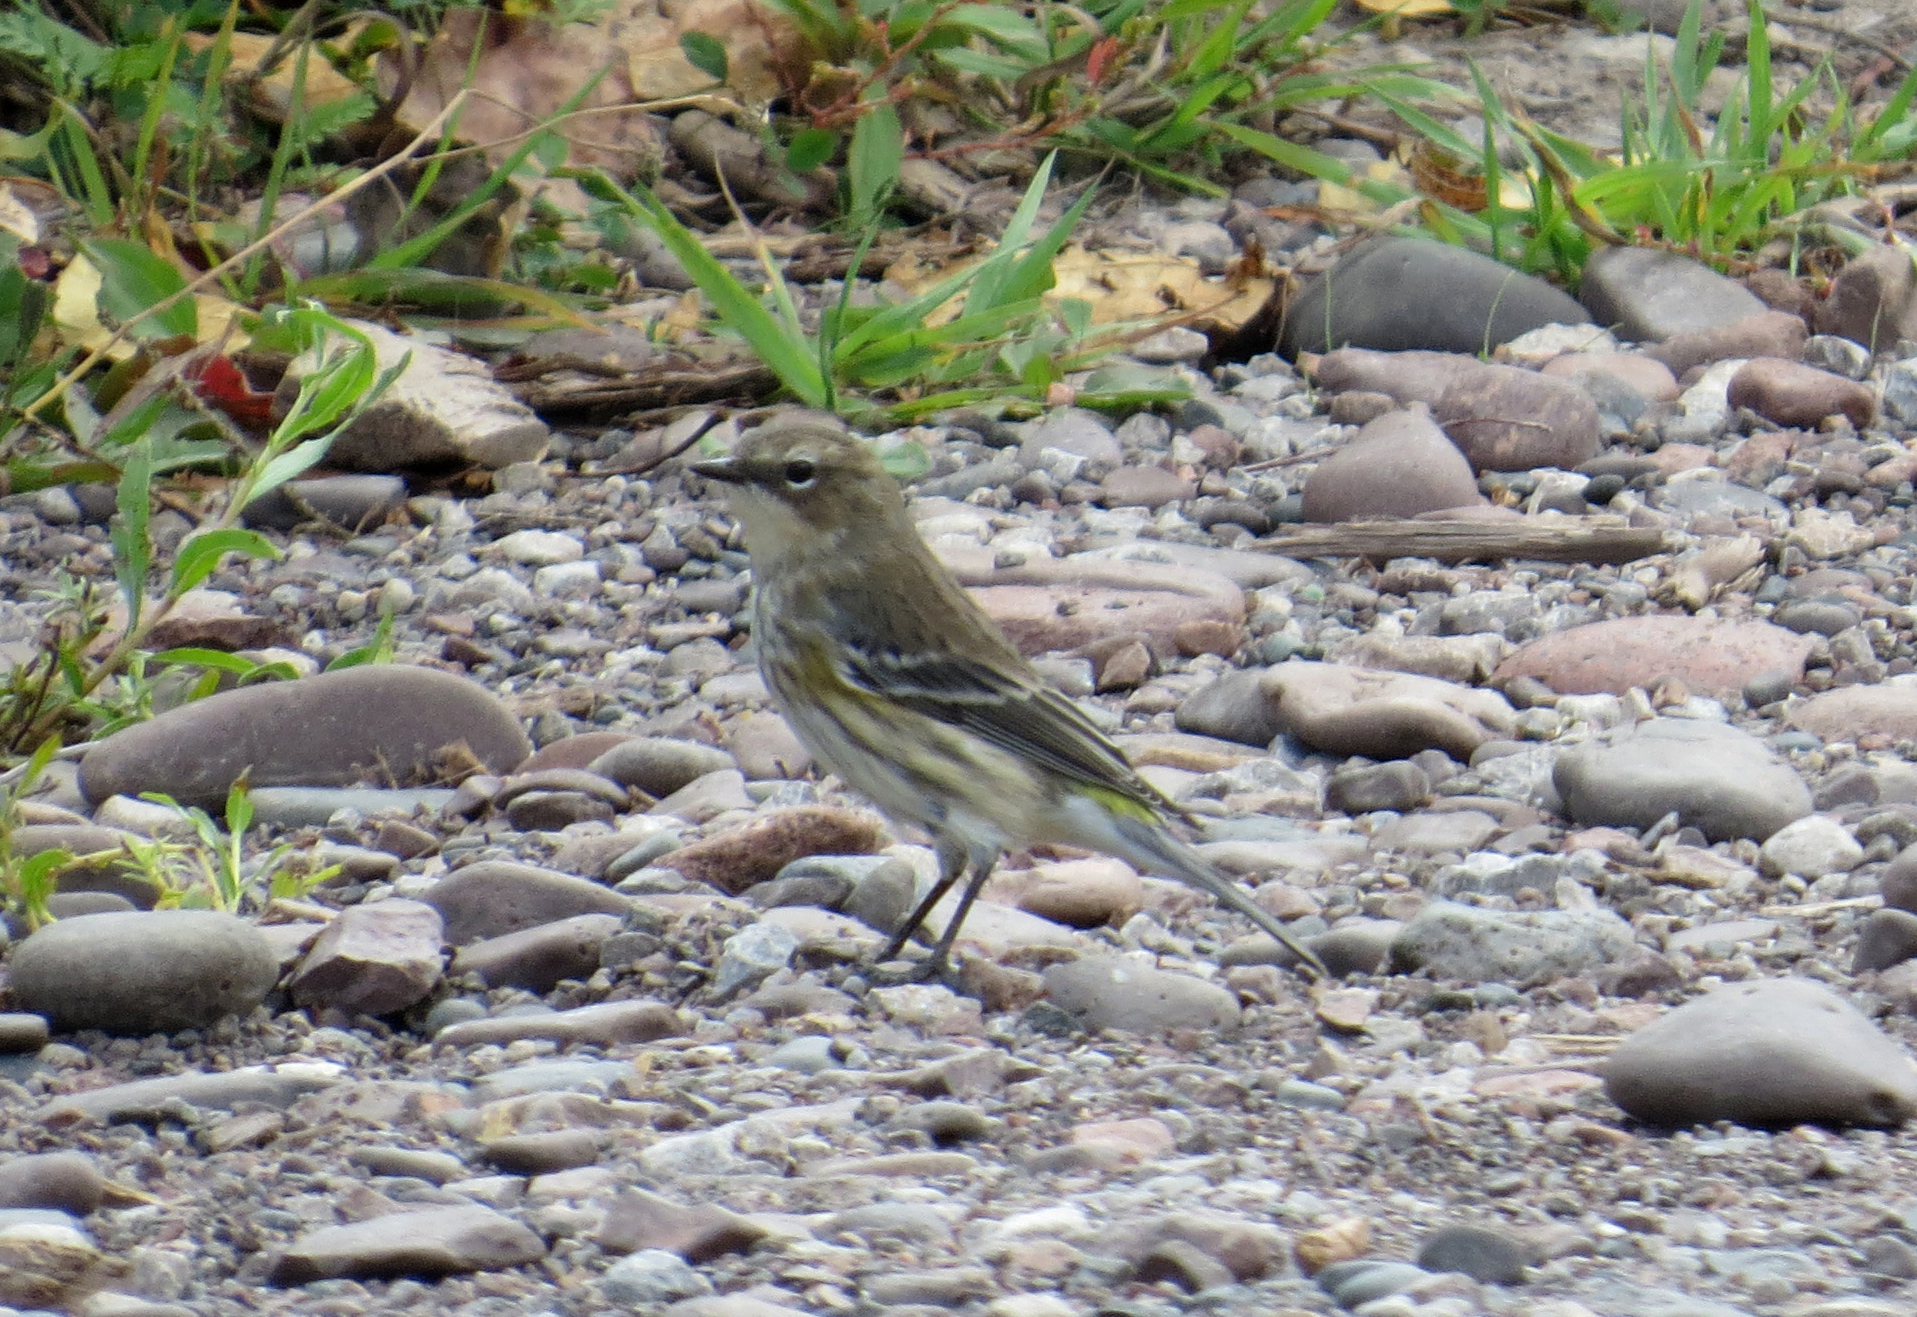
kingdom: Animalia
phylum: Chordata
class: Aves
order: Passeriformes
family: Parulidae
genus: Setophaga
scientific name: Setophaga coronata
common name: Myrtle warbler
